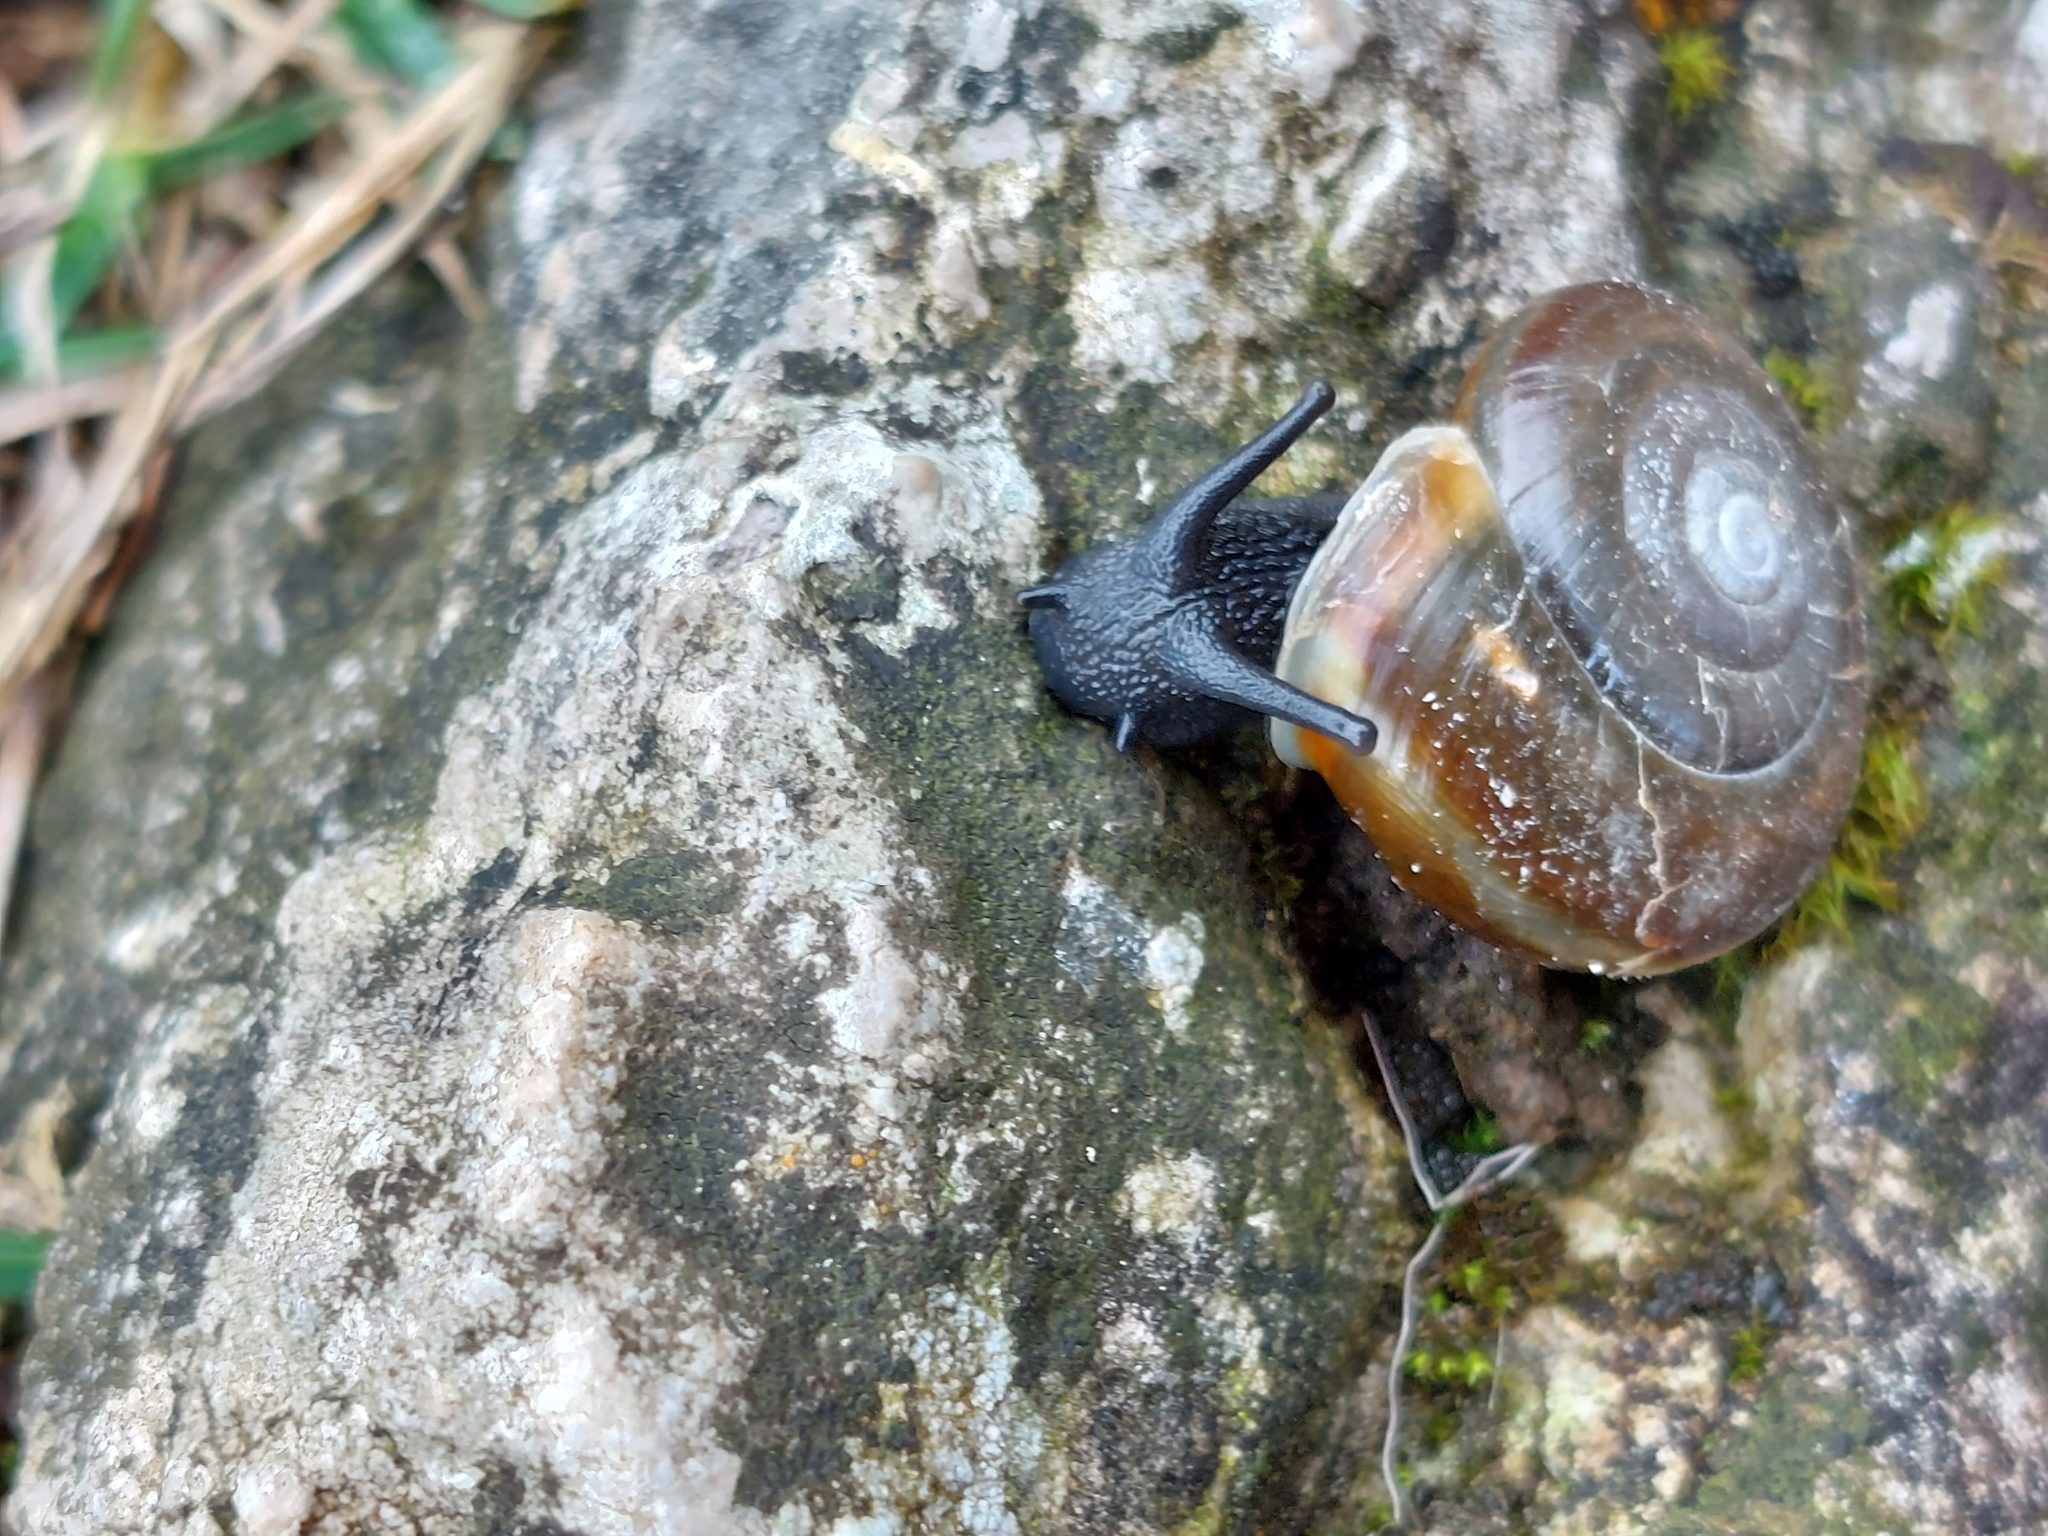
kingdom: Animalia
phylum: Mollusca
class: Gastropoda
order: Stylommatophora
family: Helicidae
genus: Chilostoma
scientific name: Chilostoma achates
